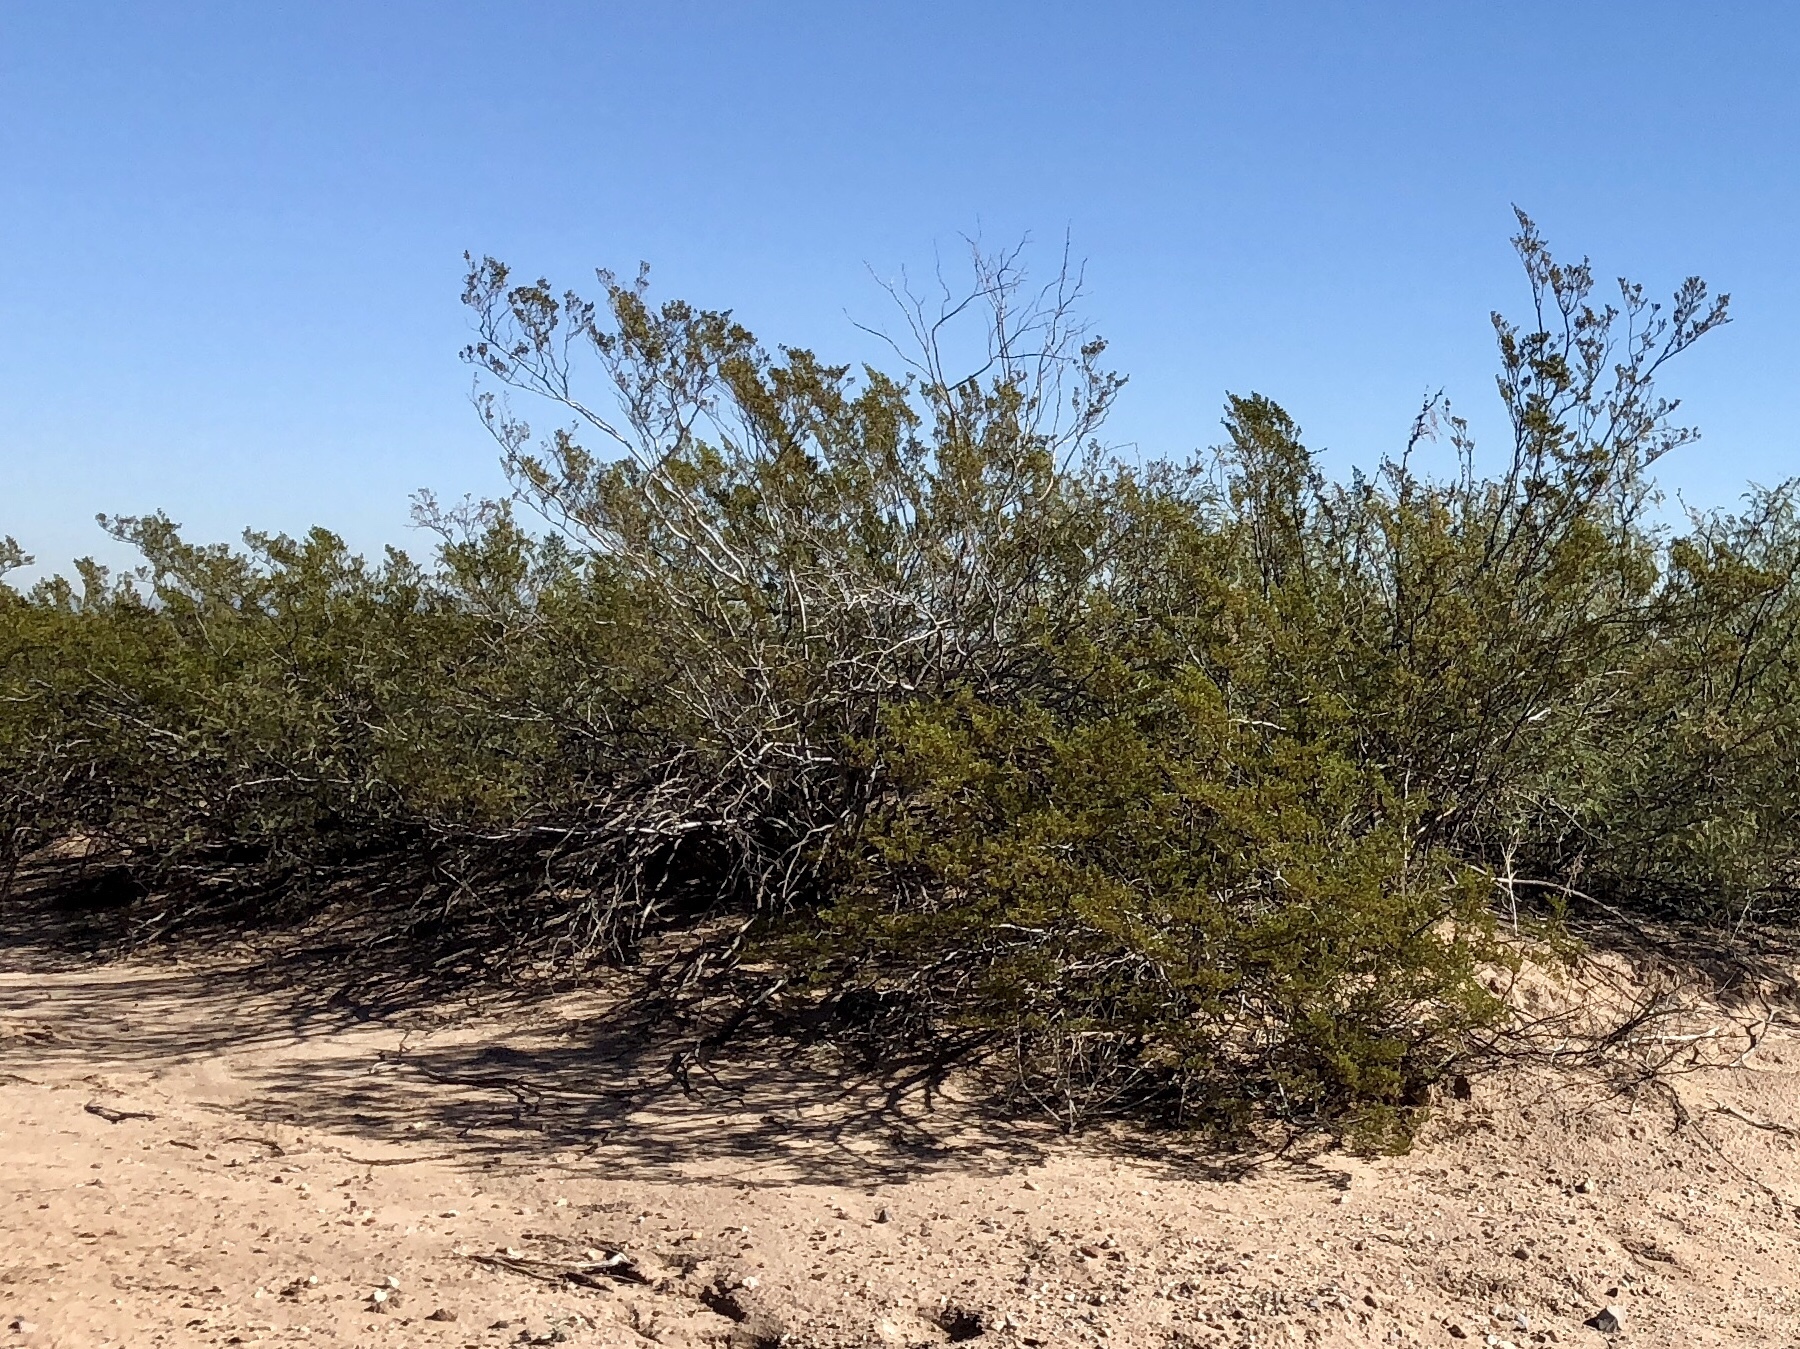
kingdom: Plantae
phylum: Tracheophyta
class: Magnoliopsida
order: Zygophyllales
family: Zygophyllaceae
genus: Larrea
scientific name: Larrea tridentata
